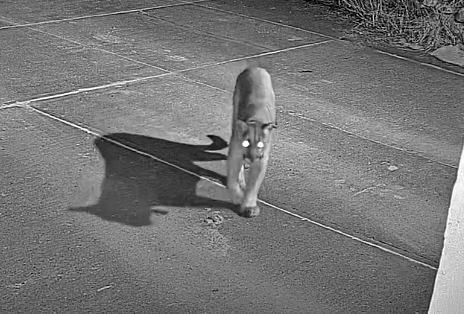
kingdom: Animalia
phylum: Chordata
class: Mammalia
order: Carnivora
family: Felidae
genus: Puma
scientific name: Puma concolor
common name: Puma
